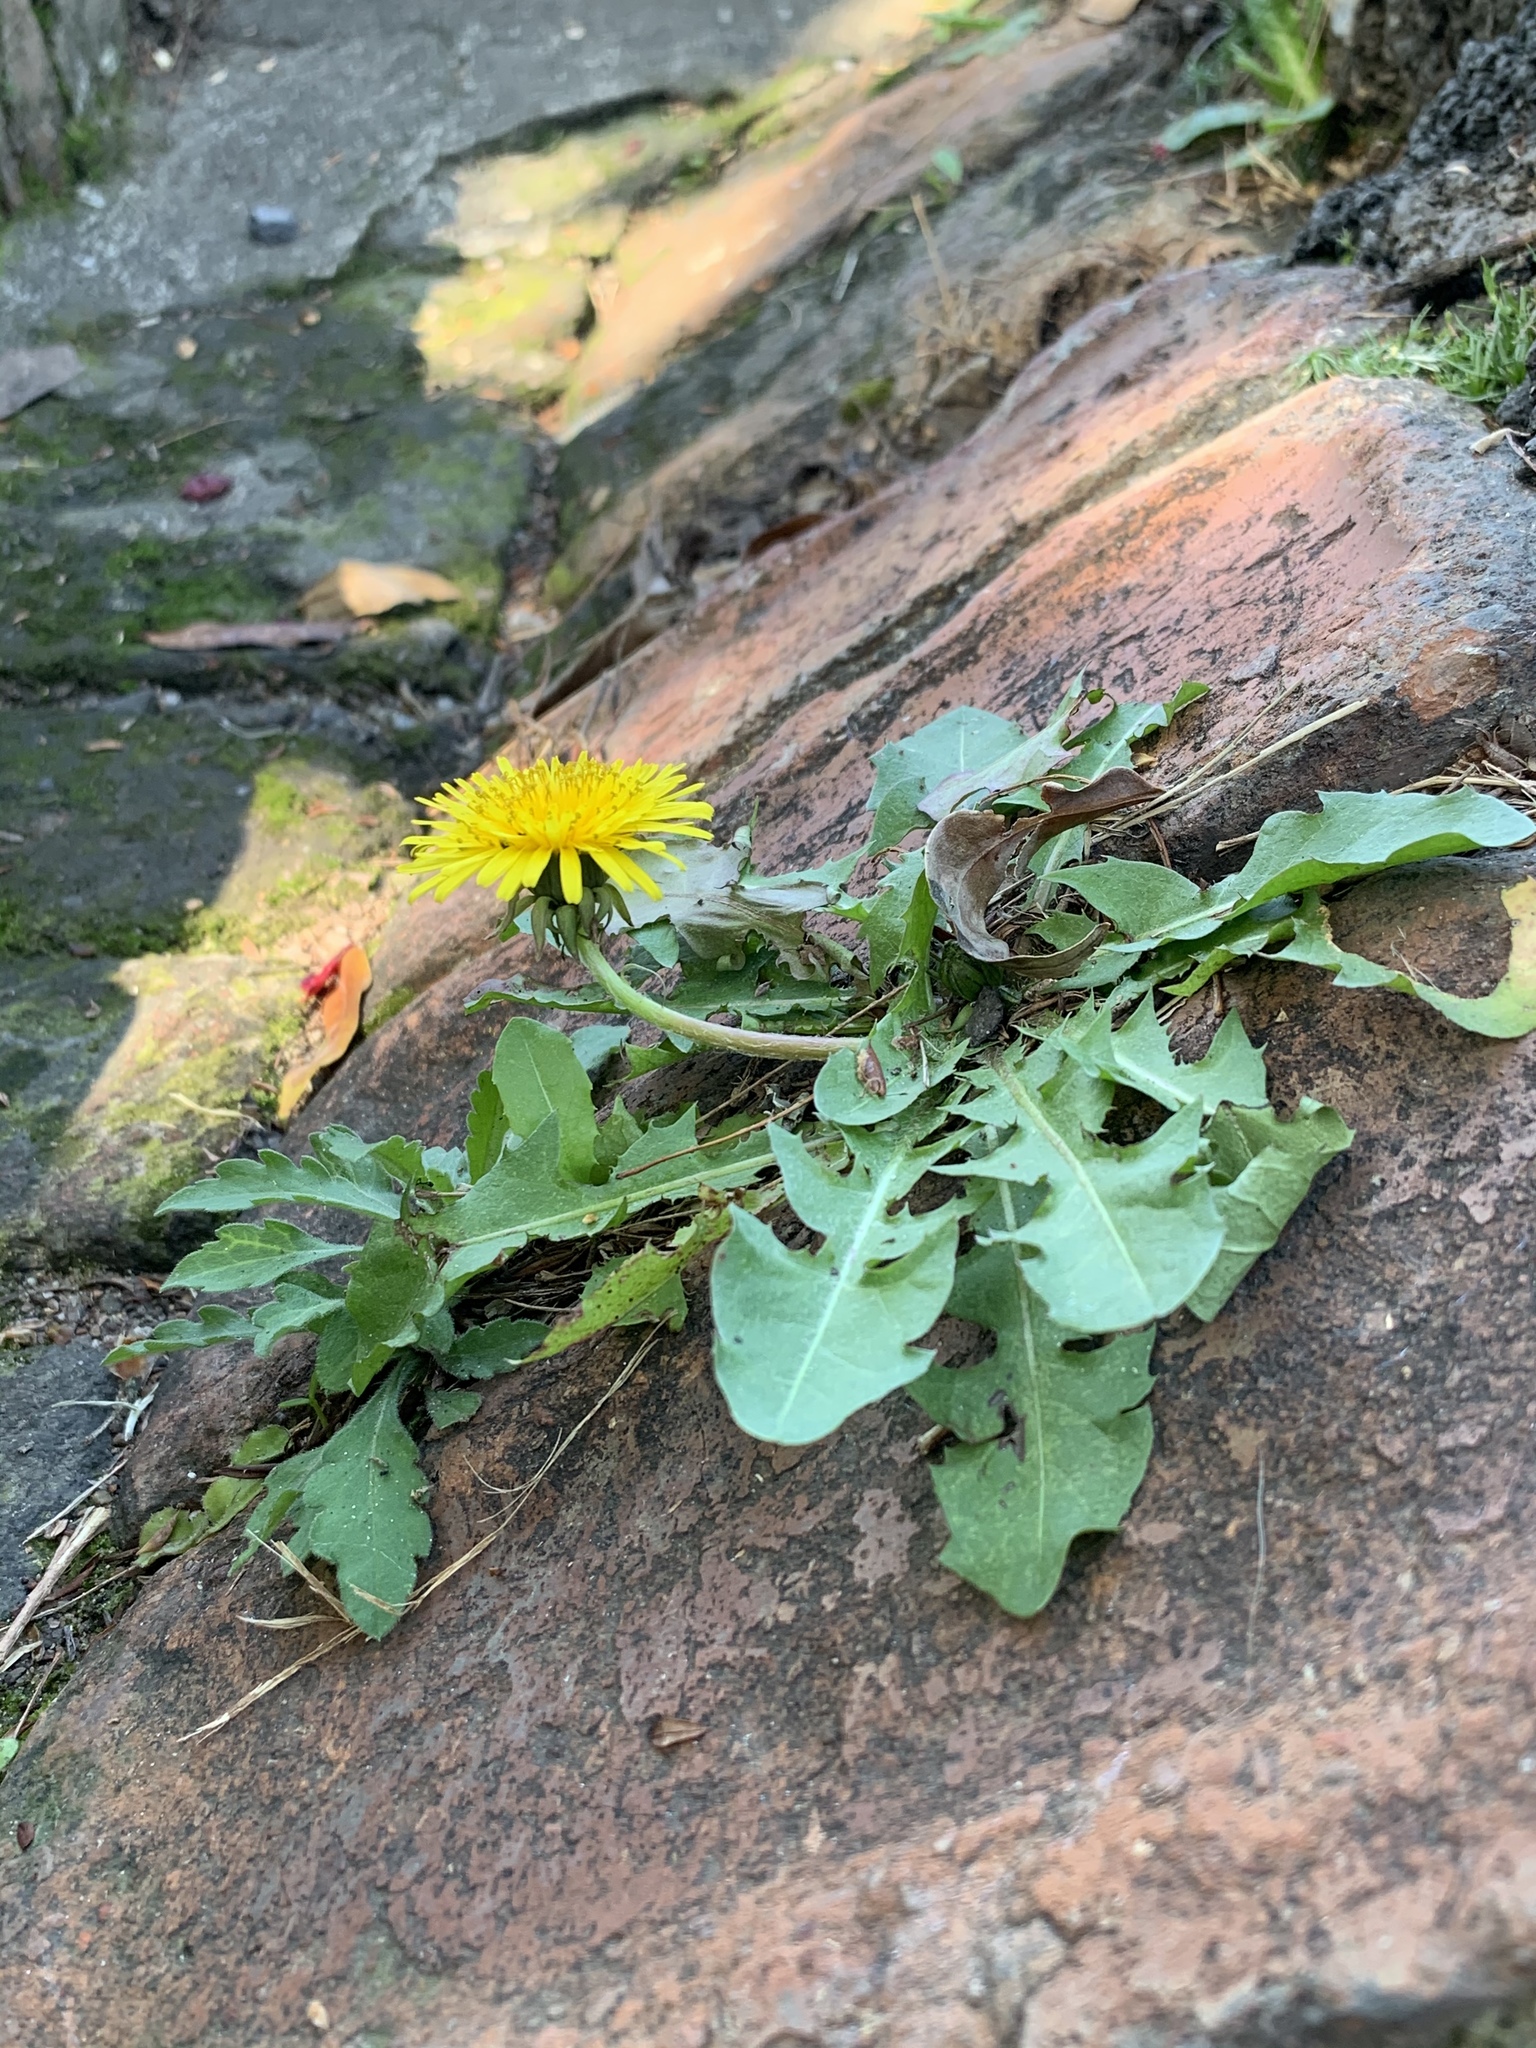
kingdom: Plantae
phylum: Tracheophyta
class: Magnoliopsida
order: Asterales
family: Asteraceae
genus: Taraxacum
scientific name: Taraxacum officinale
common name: Common dandelion
